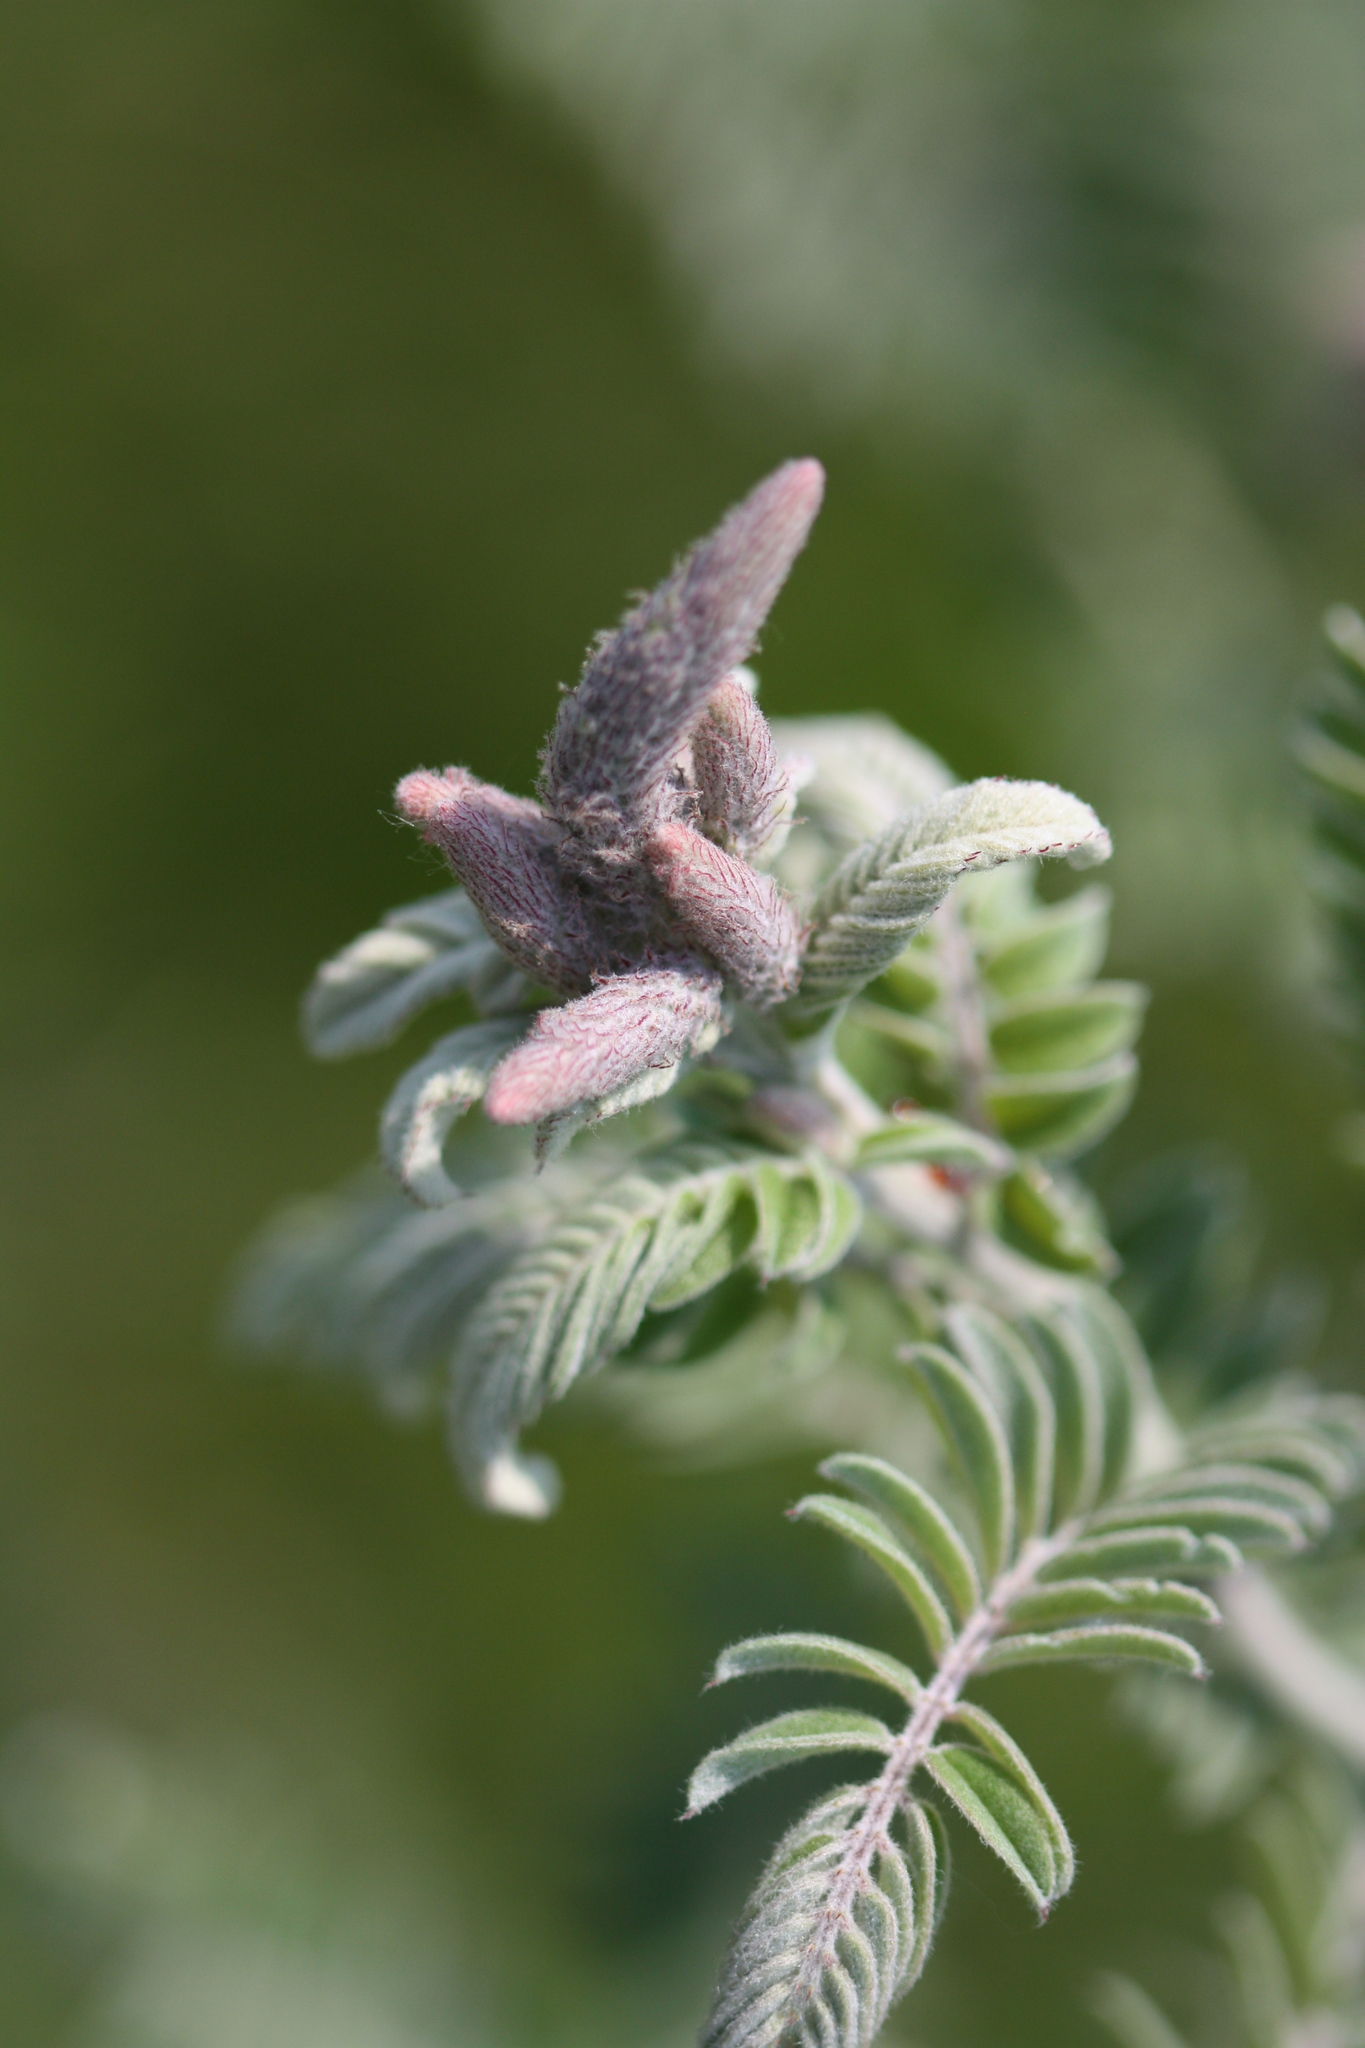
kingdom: Plantae
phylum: Tracheophyta
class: Magnoliopsida
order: Fabales
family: Fabaceae
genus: Amorpha
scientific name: Amorpha canescens
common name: Leadplant
